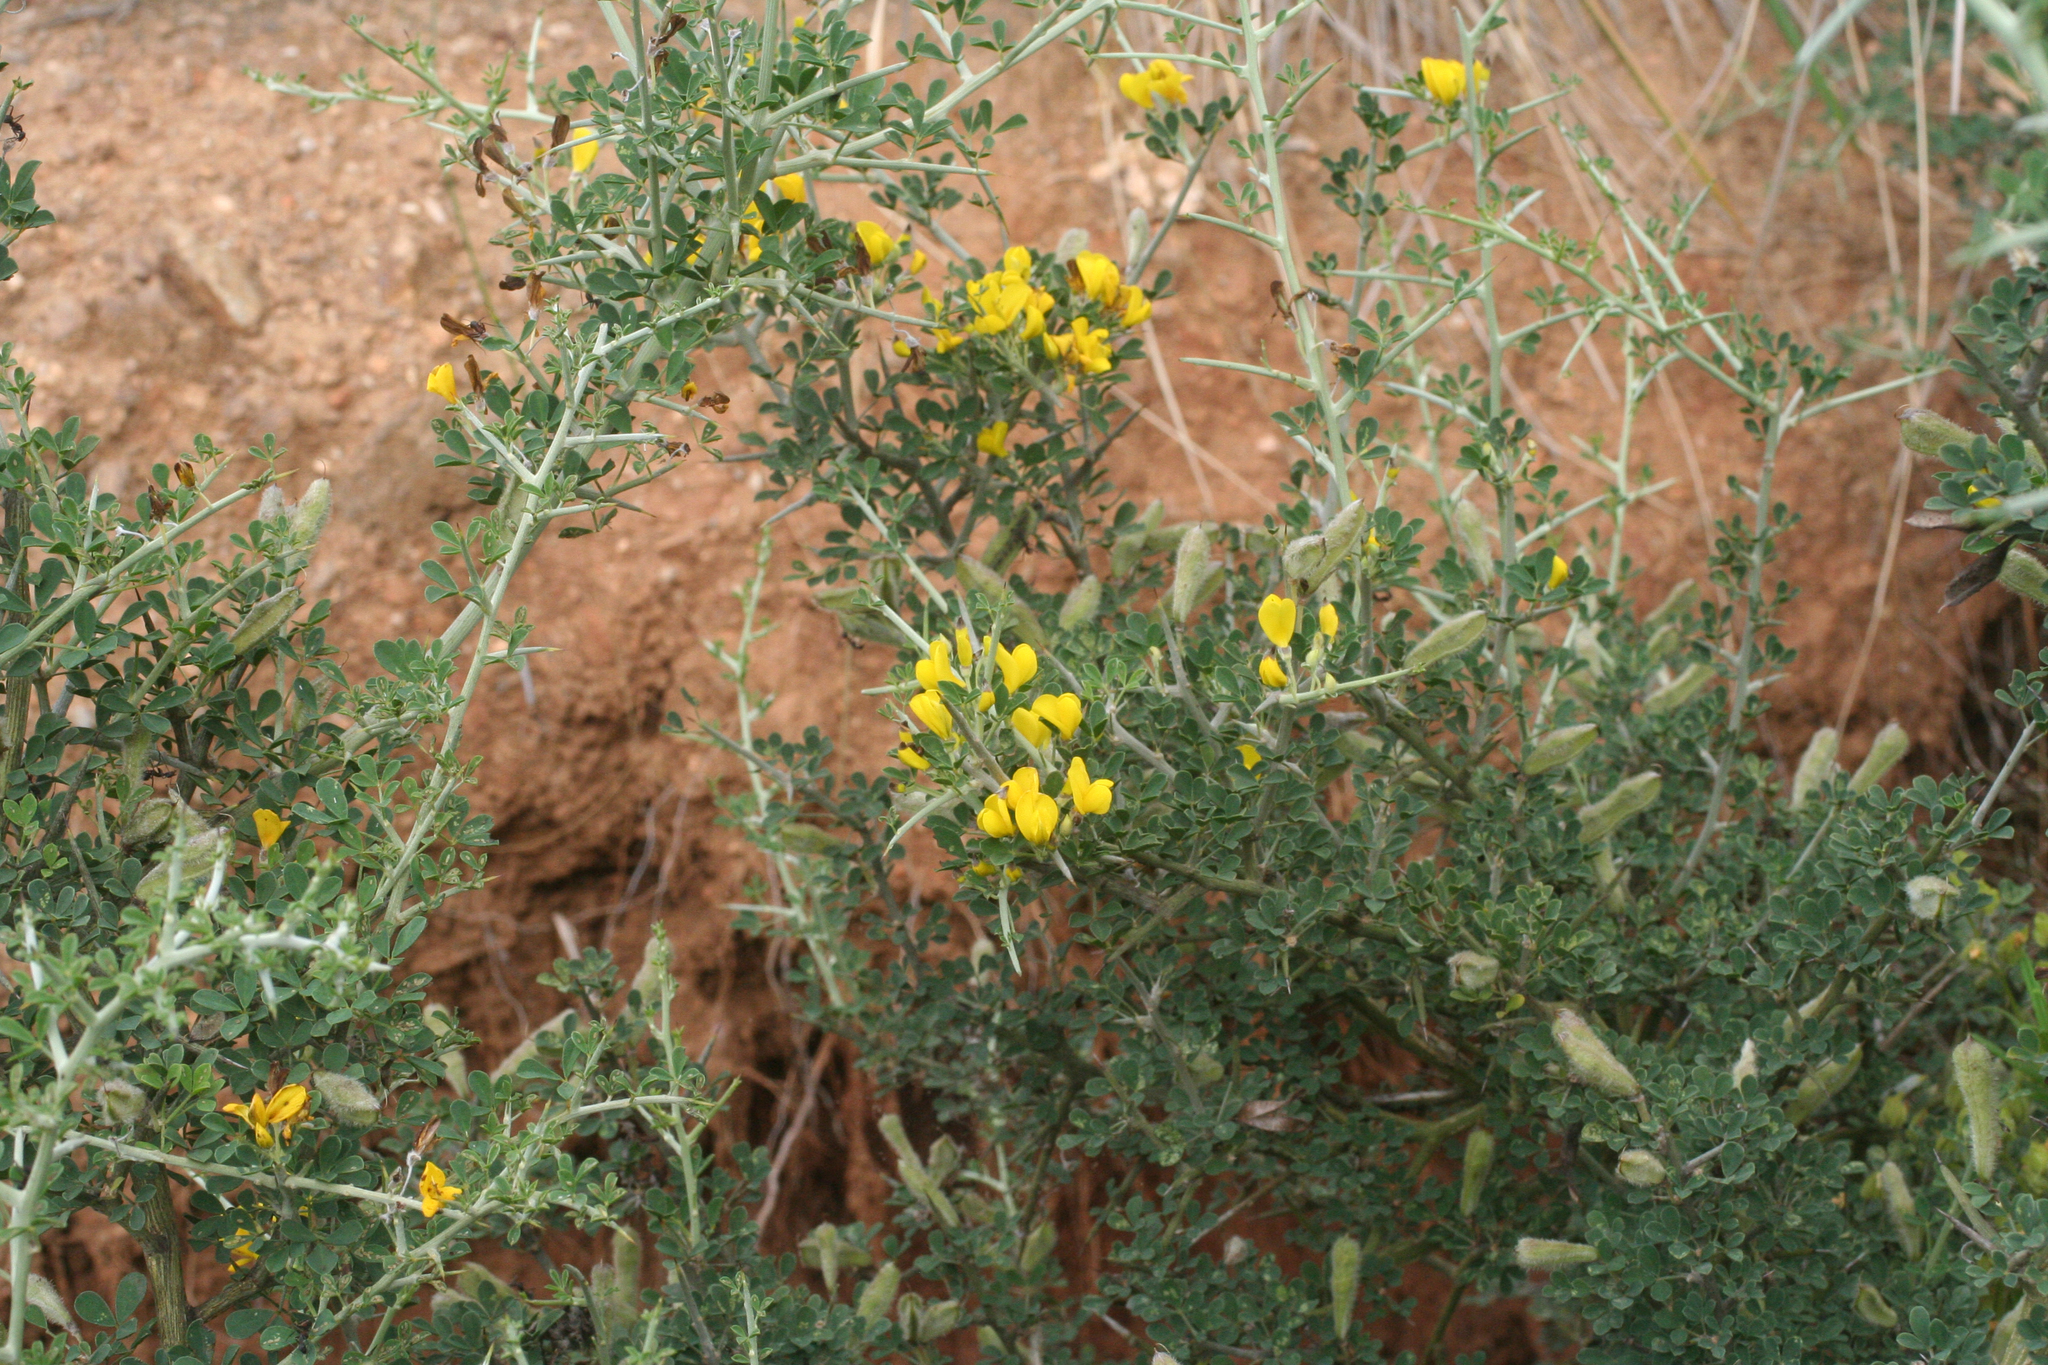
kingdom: Plantae
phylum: Tracheophyta
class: Magnoliopsida
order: Fabales
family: Fabaceae
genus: Calicotome
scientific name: Calicotome villosa
